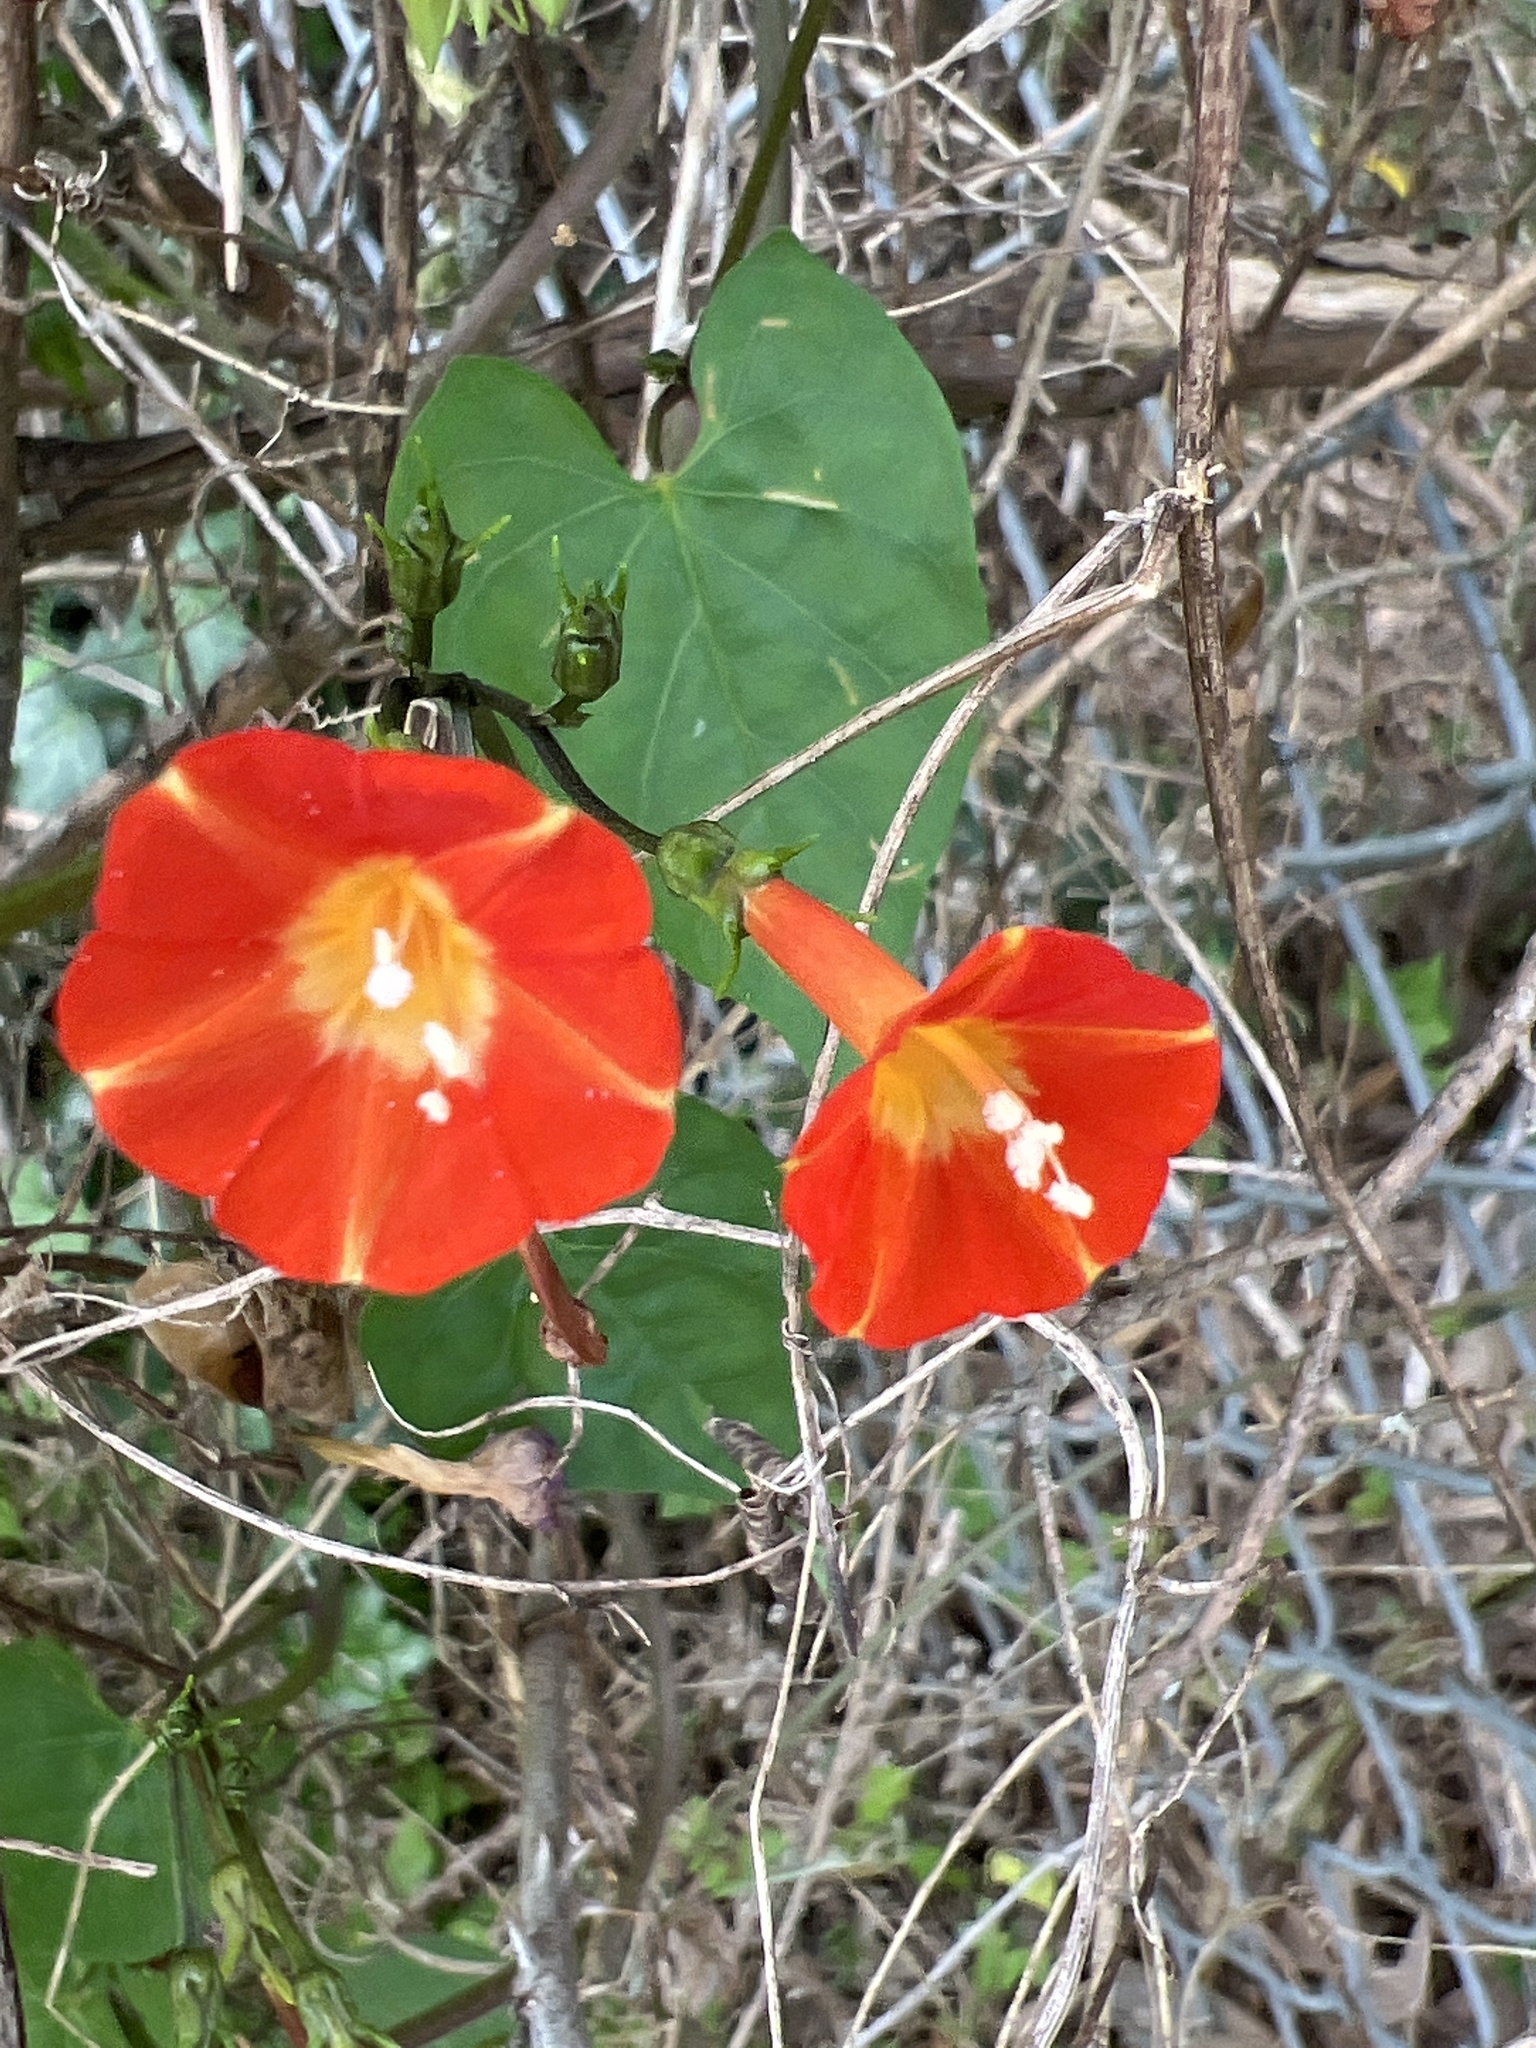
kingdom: Plantae
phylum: Tracheophyta
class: Magnoliopsida
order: Solanales
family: Convolvulaceae
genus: Ipomoea
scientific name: Ipomoea coccinea
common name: Red morning-glory
